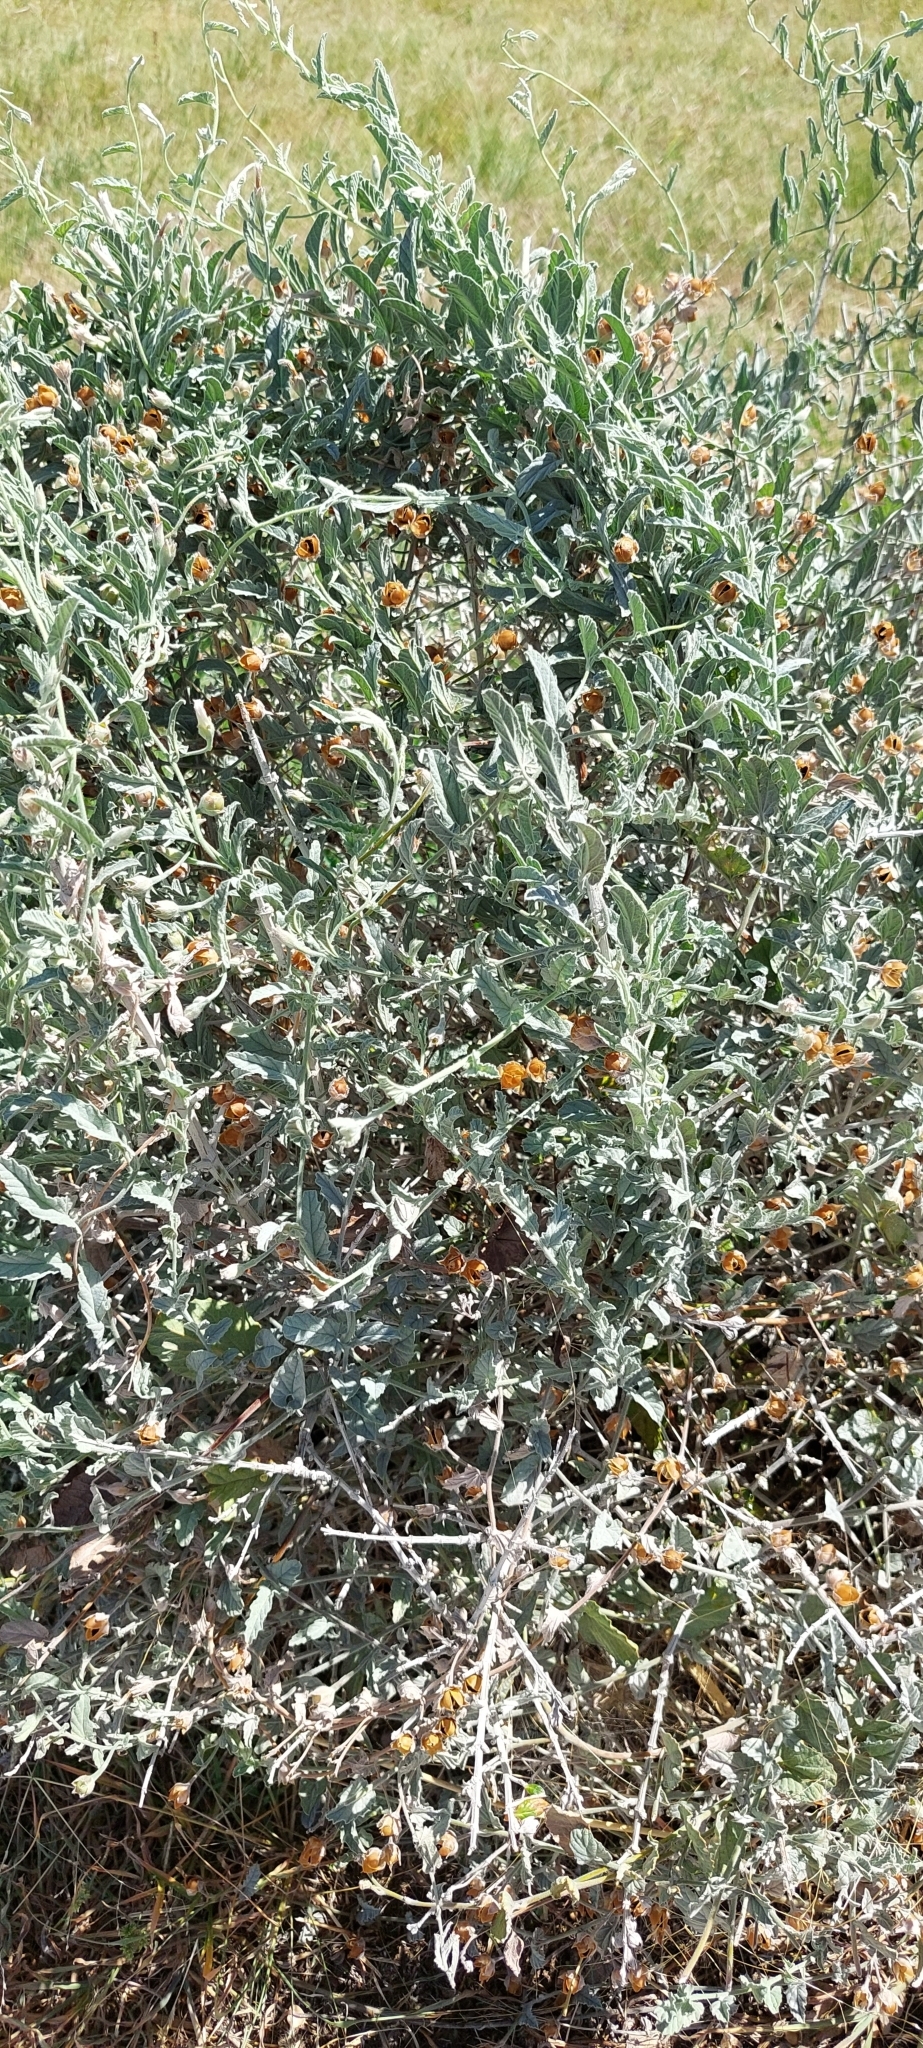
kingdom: Plantae
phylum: Tracheophyta
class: Magnoliopsida
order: Solanales
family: Convolvulaceae
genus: Convolvulus
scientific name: Convolvulus hermanniae
